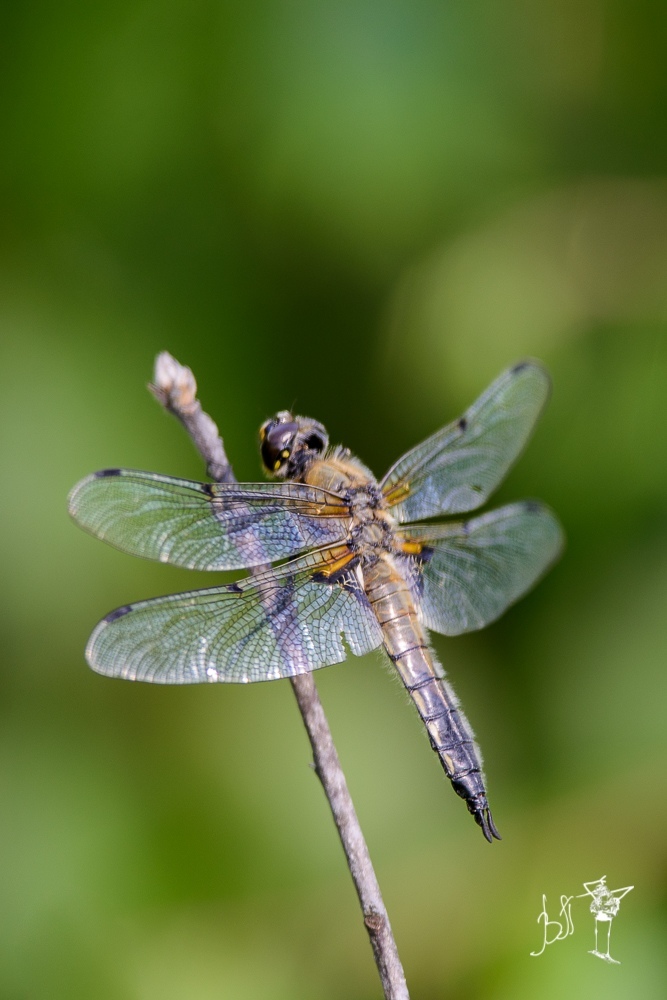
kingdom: Animalia
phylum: Arthropoda
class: Insecta
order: Odonata
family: Libellulidae
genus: Libellula
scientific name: Libellula quadrimaculata
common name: Four-spotted chaser
